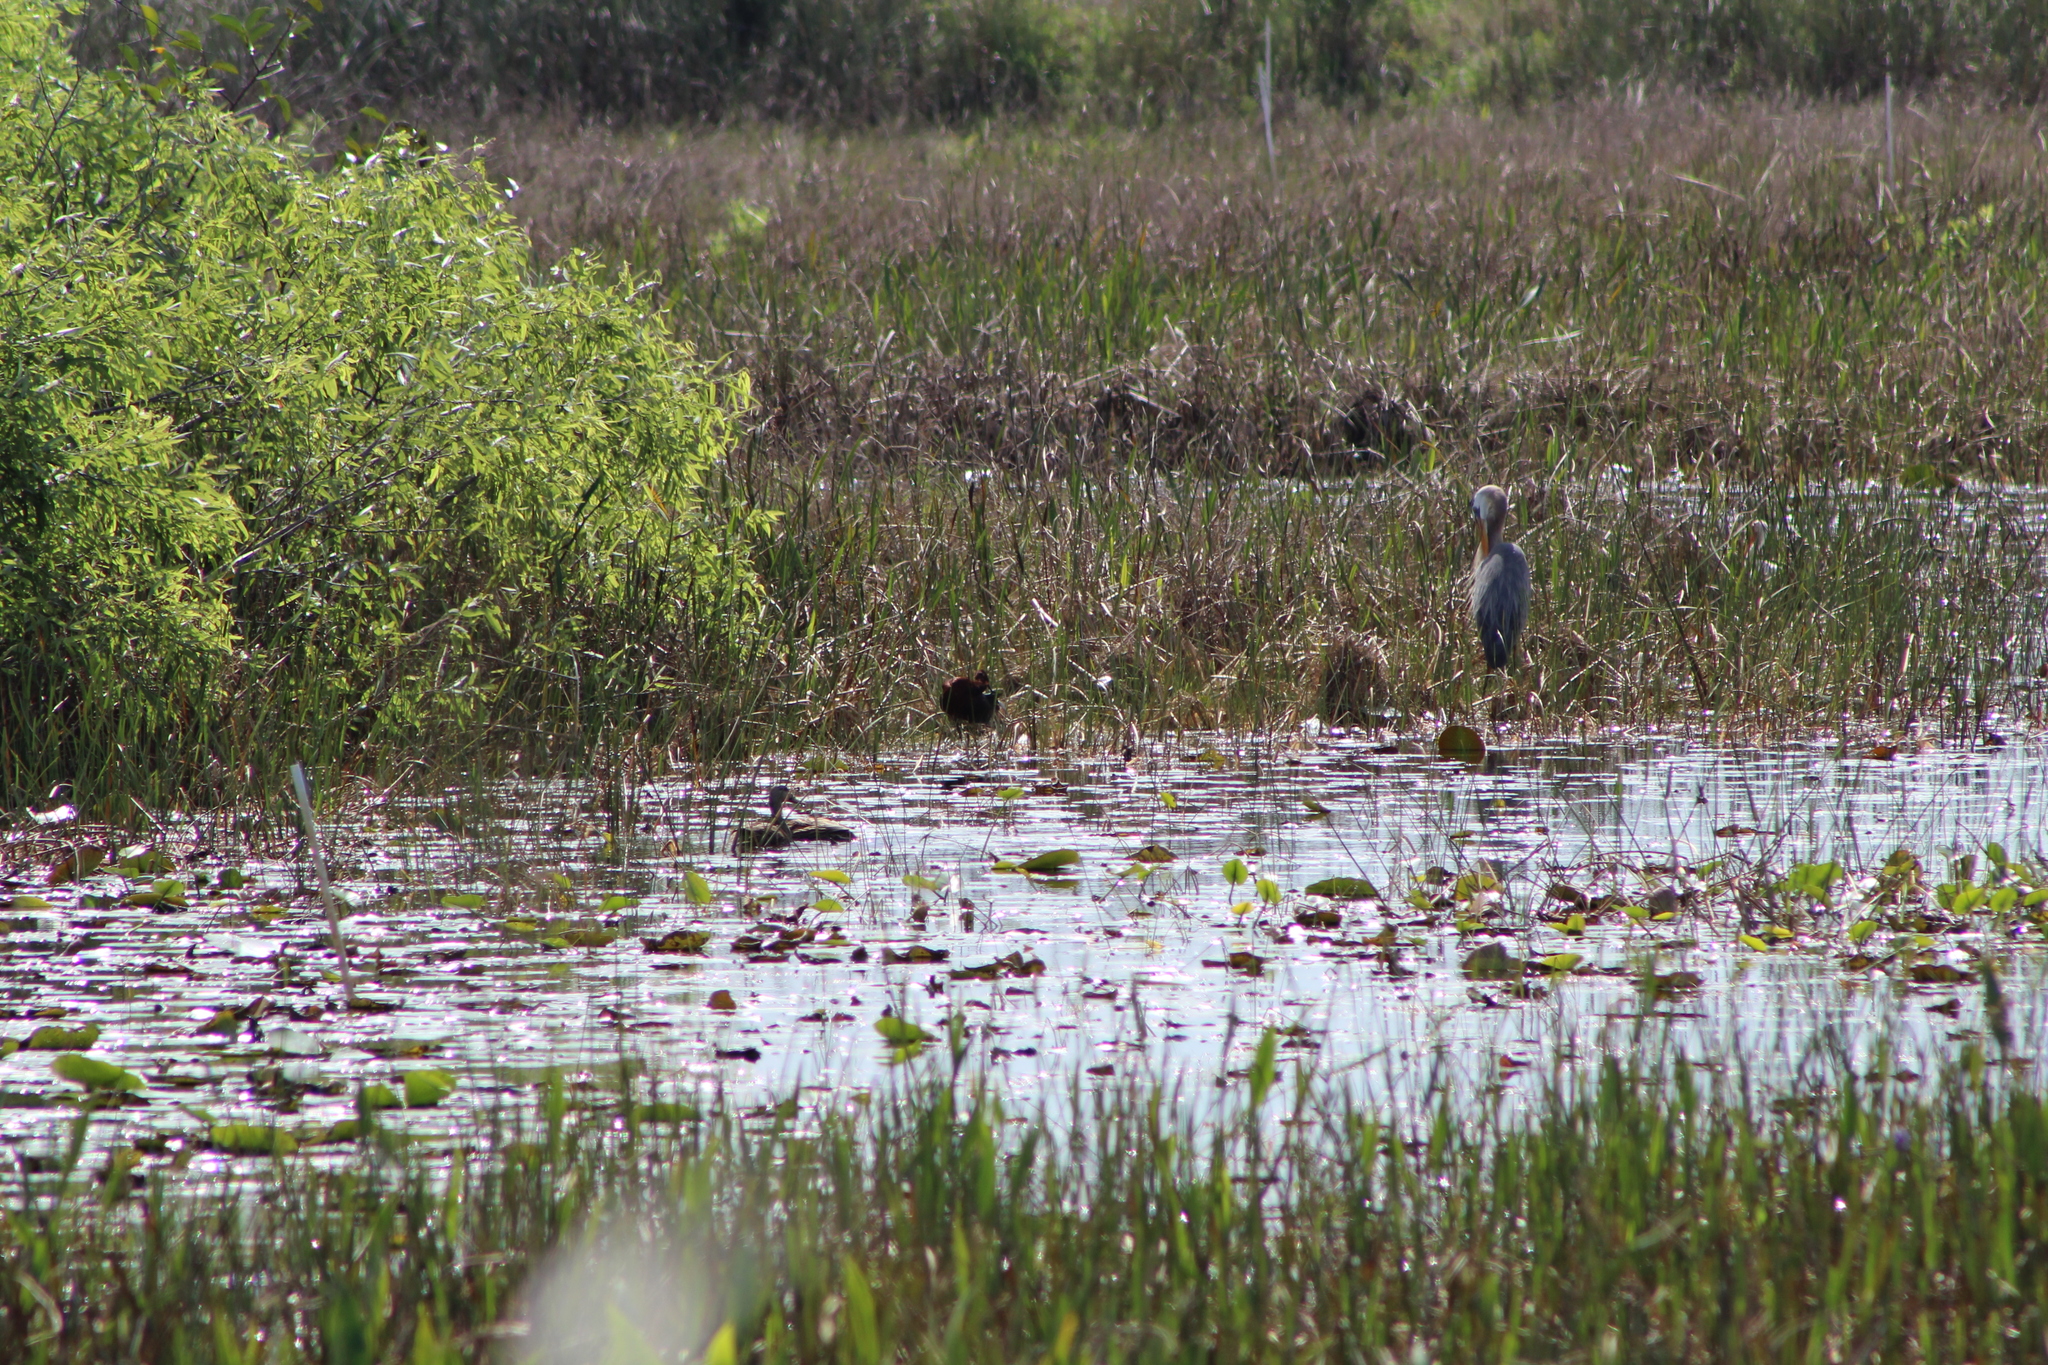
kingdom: Animalia
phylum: Chordata
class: Aves
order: Pelecaniformes
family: Ardeidae
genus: Egretta
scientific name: Egretta tricolor
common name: Tricolored heron
